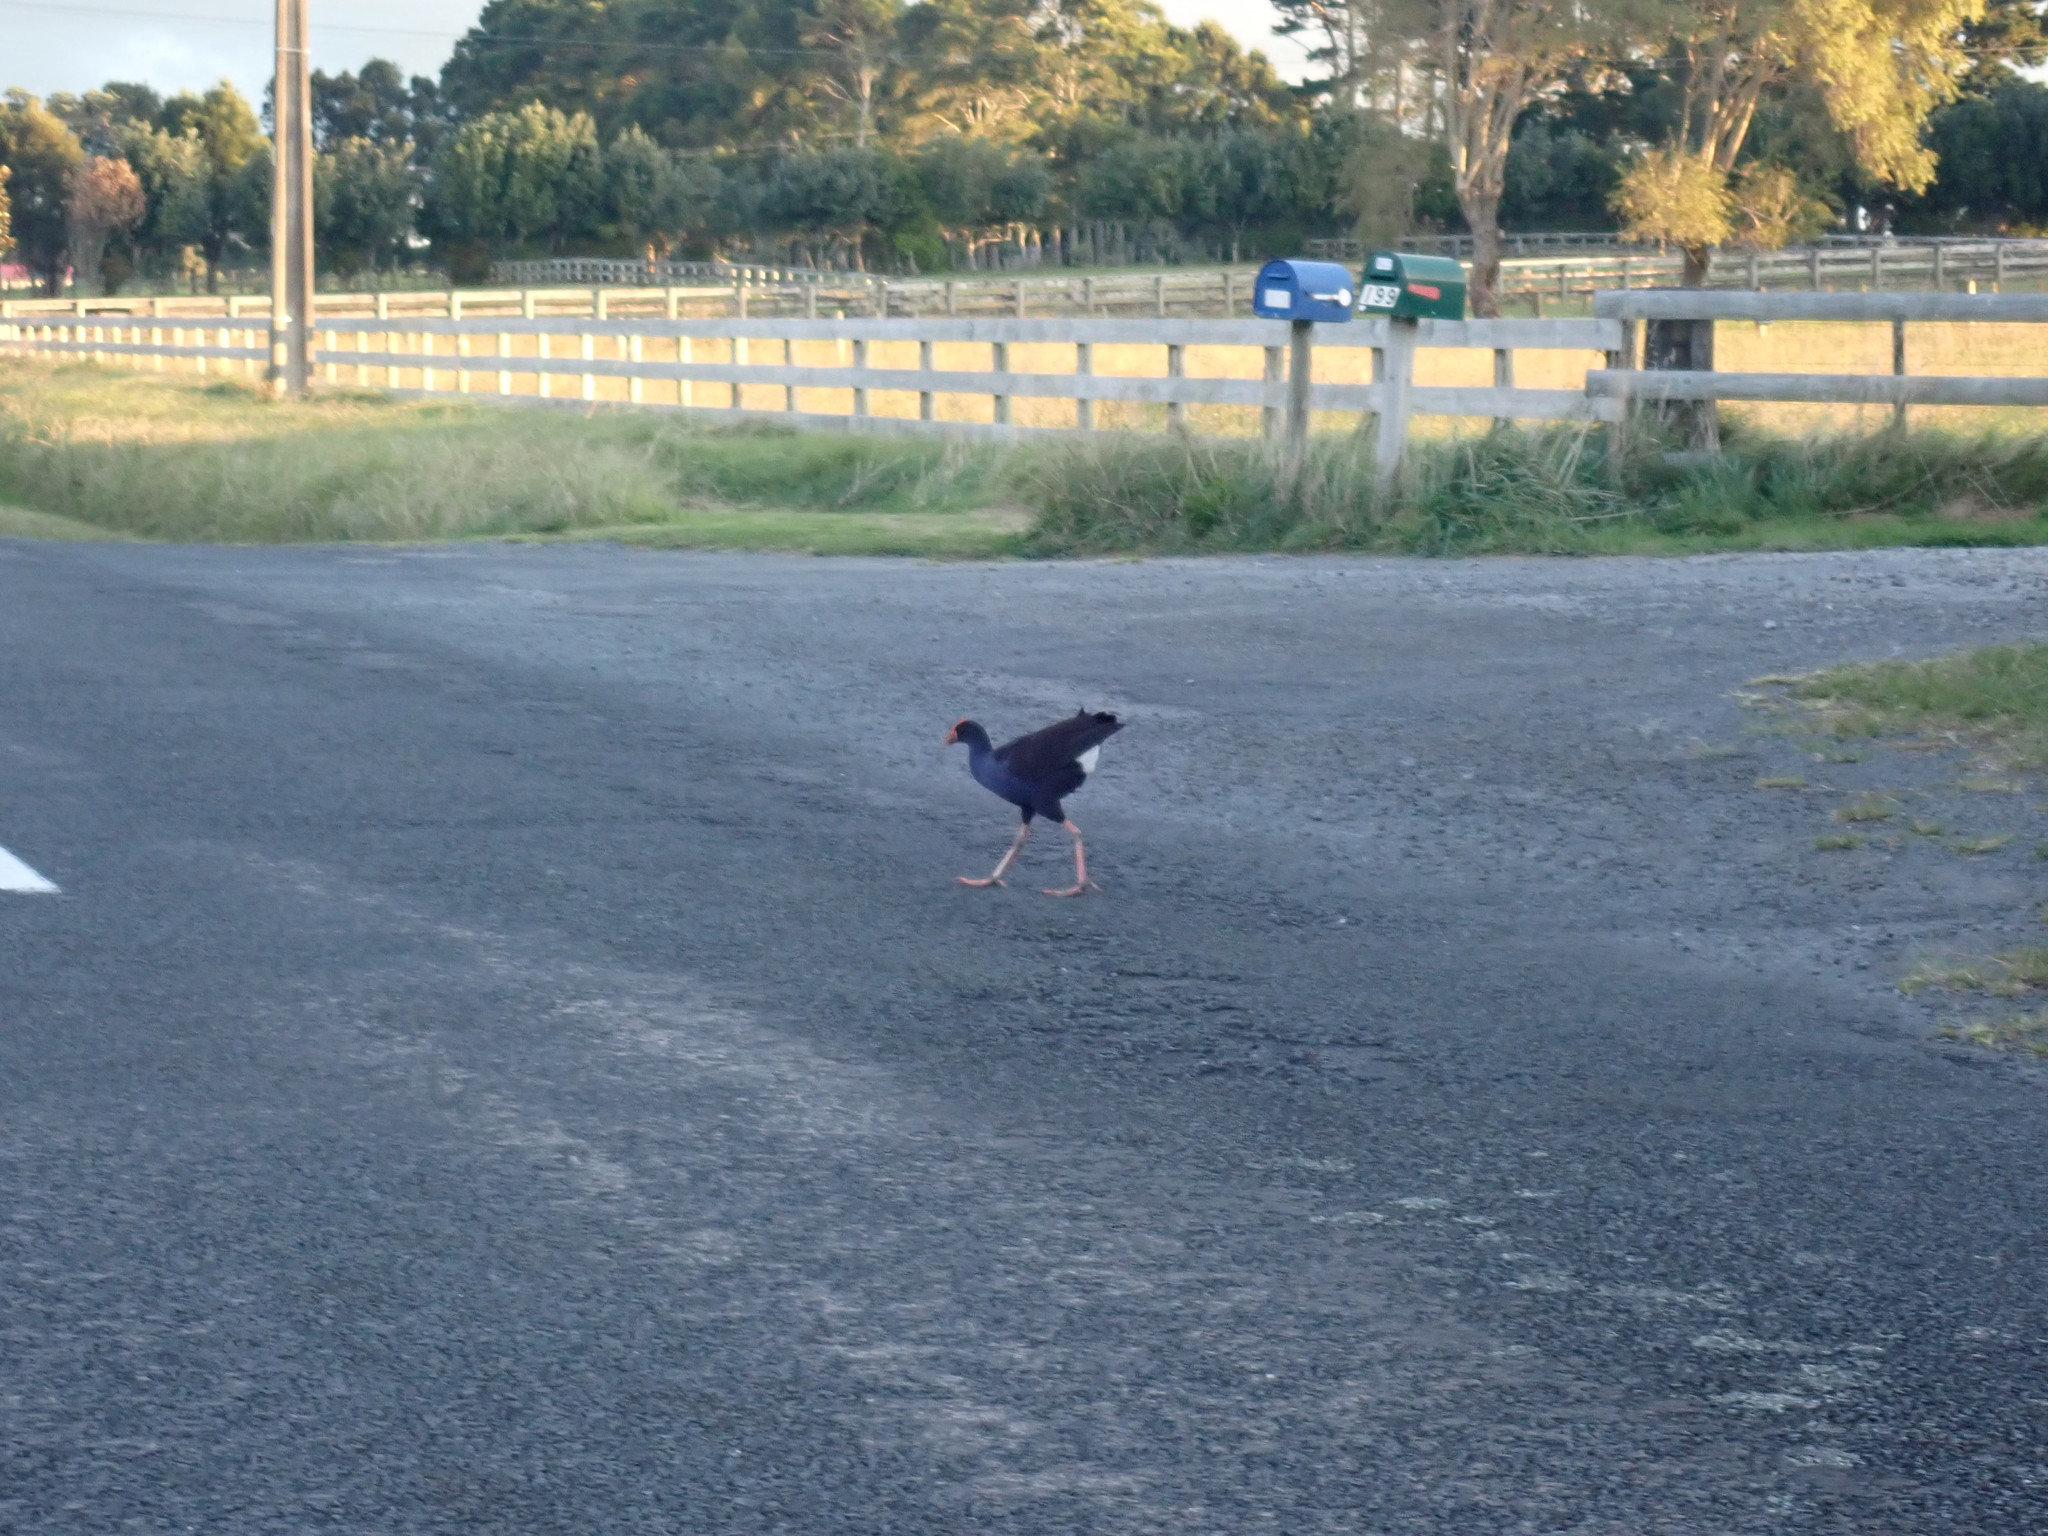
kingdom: Animalia
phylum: Chordata
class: Aves
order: Gruiformes
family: Rallidae
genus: Porphyrio
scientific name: Porphyrio melanotus
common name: Australasian swamphen
